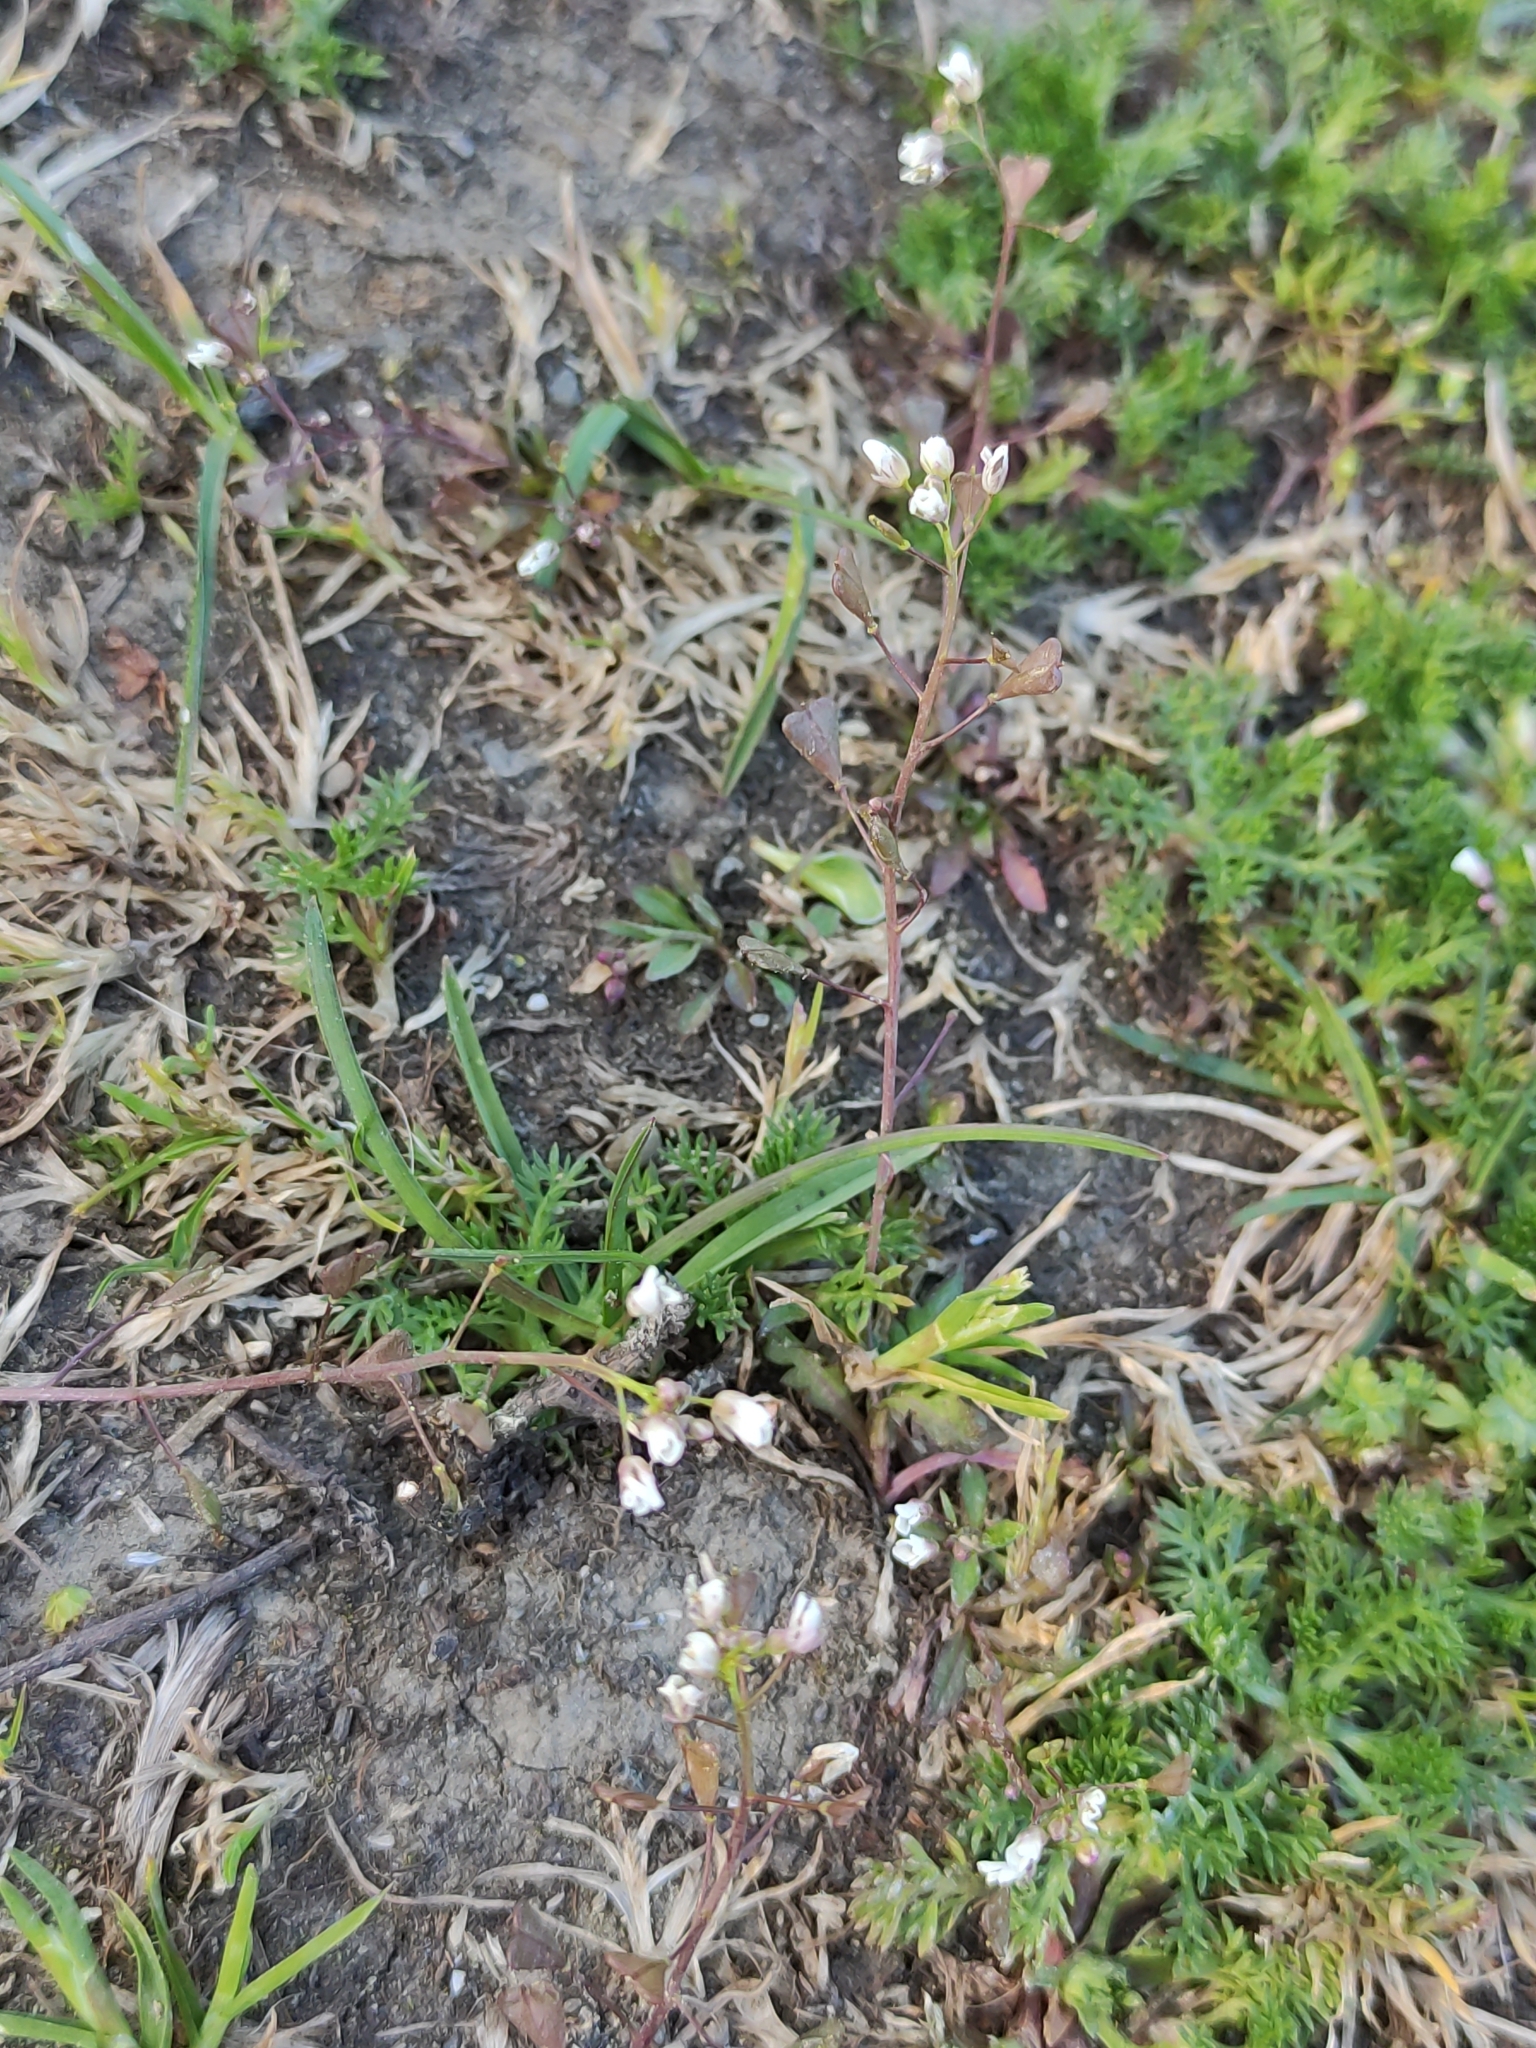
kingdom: Plantae
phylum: Tracheophyta
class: Magnoliopsida
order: Brassicales
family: Brassicaceae
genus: Capsella
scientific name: Capsella bursa-pastoris
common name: Shepherd's purse
